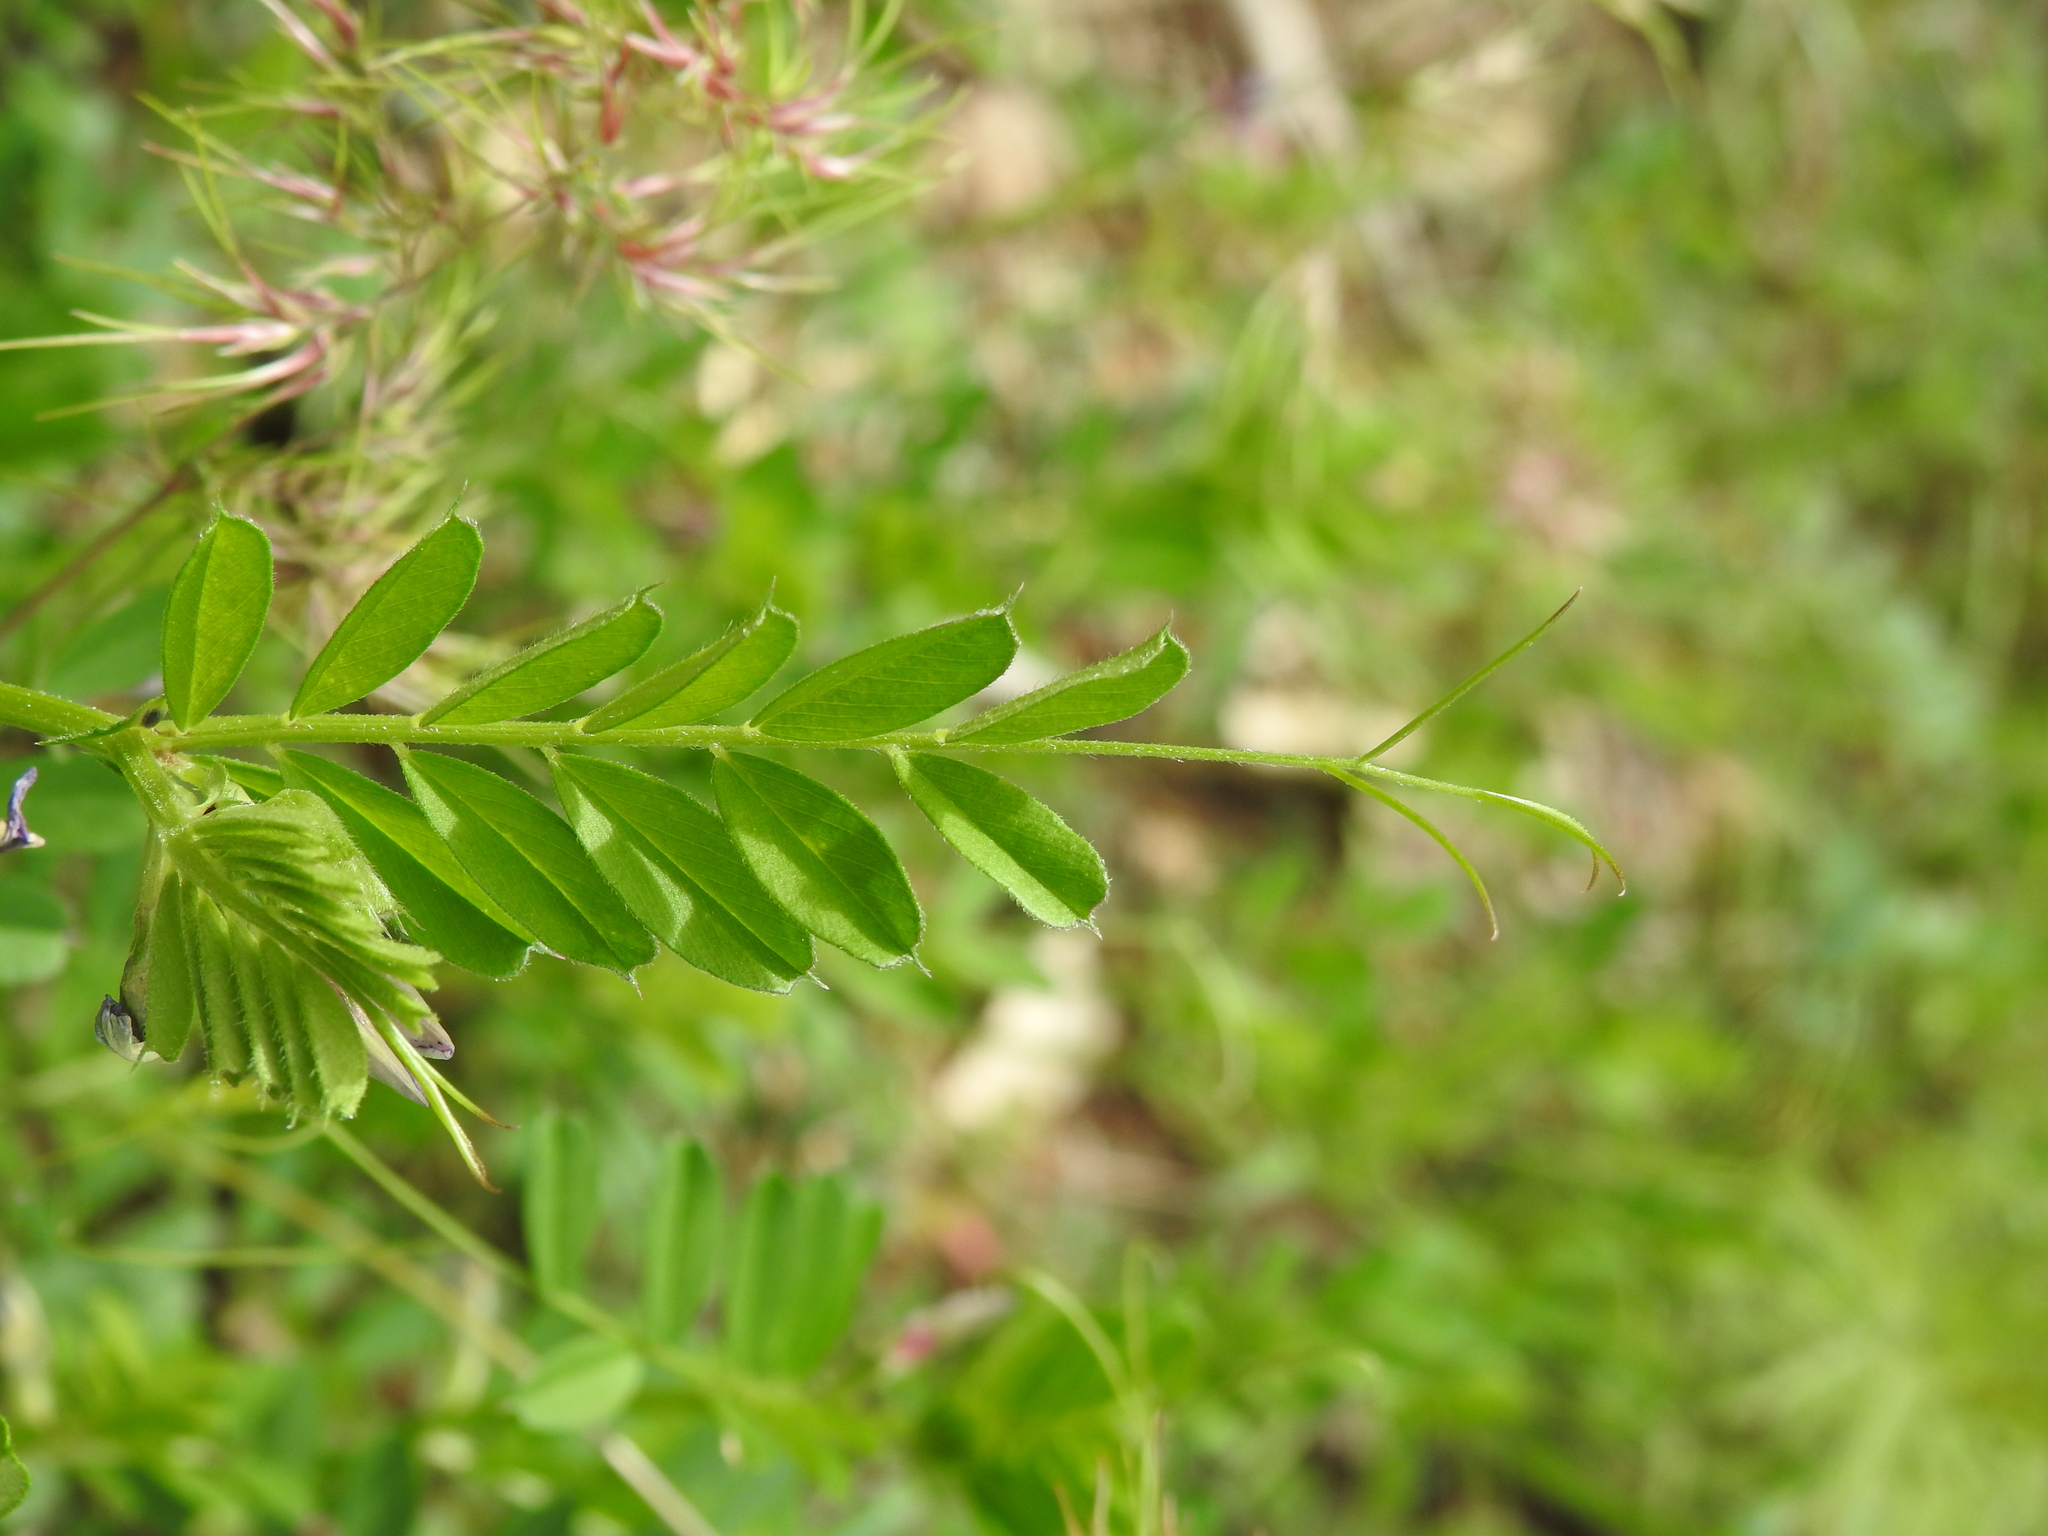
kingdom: Plantae
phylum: Tracheophyta
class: Magnoliopsida
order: Fabales
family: Fabaceae
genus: Vicia
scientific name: Vicia sativa
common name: Garden vetch
